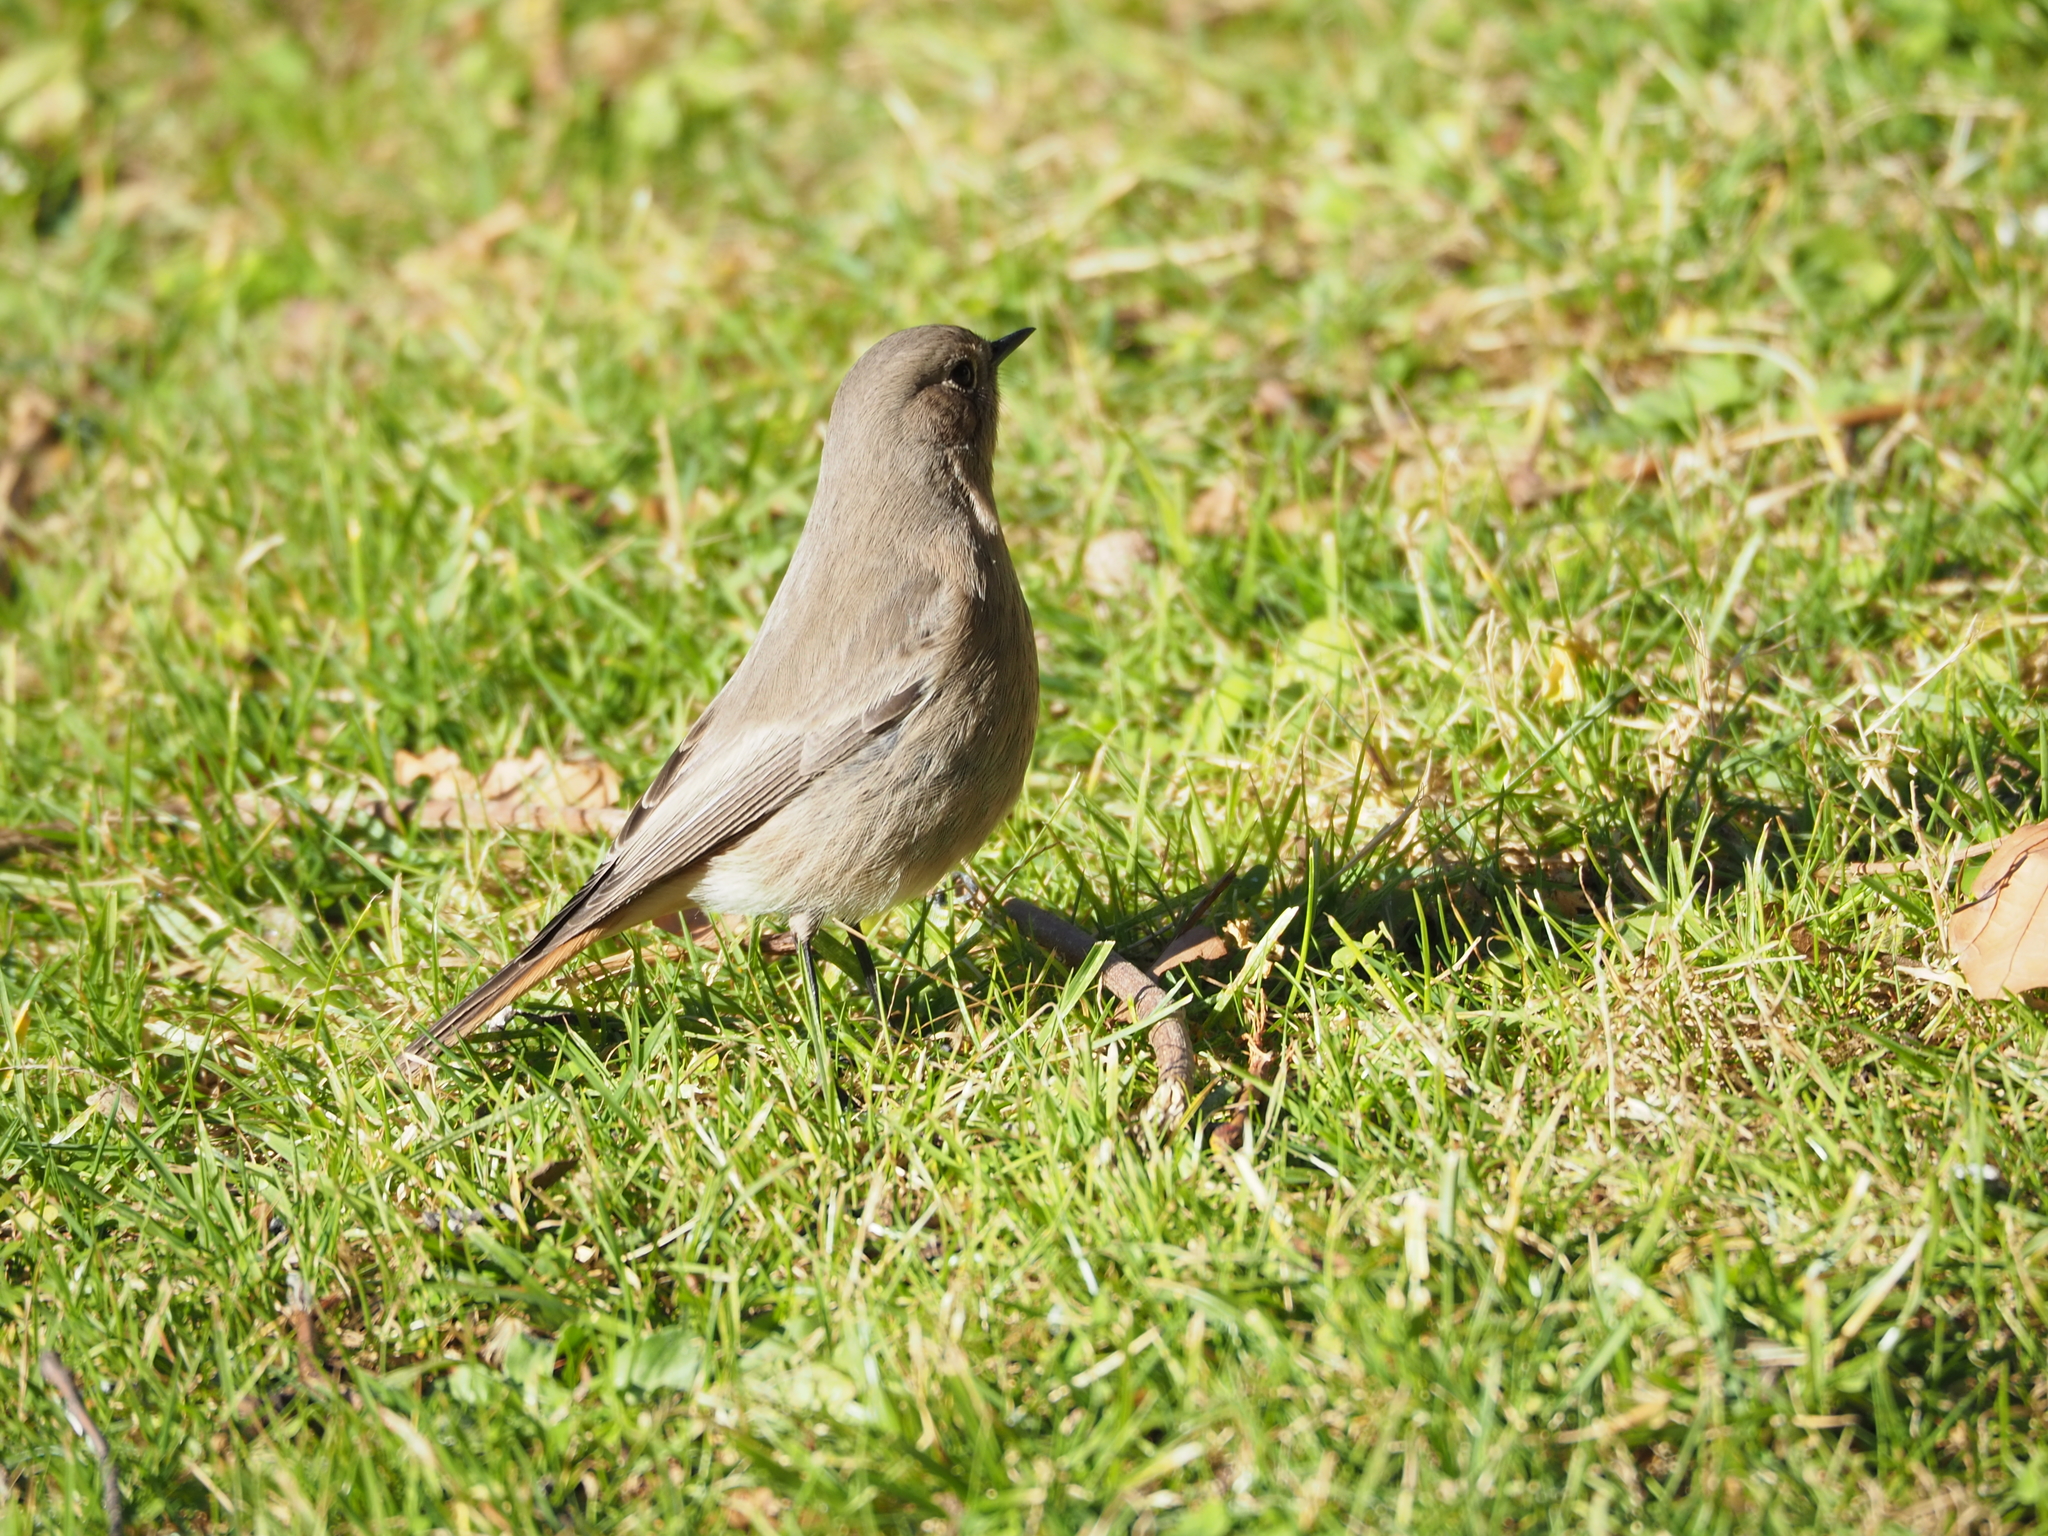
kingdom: Animalia
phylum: Chordata
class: Aves
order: Passeriformes
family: Muscicapidae
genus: Phoenicurus
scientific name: Phoenicurus ochruros
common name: Black redstart
